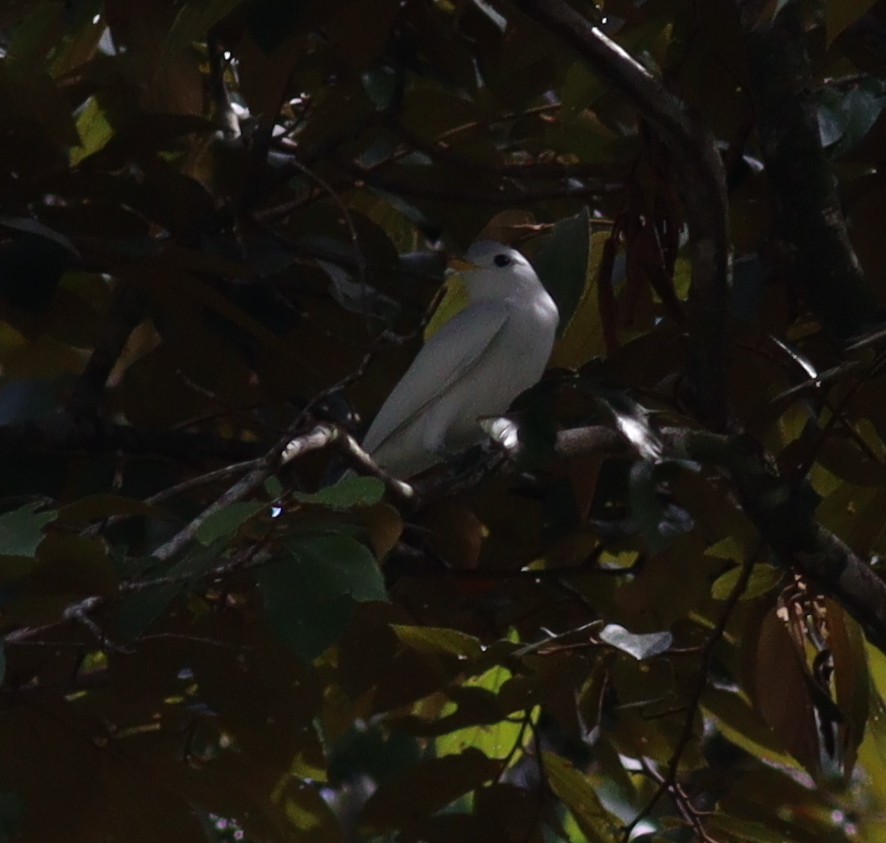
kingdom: Animalia
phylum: Chordata
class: Aves
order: Passeriformes
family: Cotingidae
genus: Carpodectes
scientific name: Carpodectes antoniae
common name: Yellow-billed cotinga
